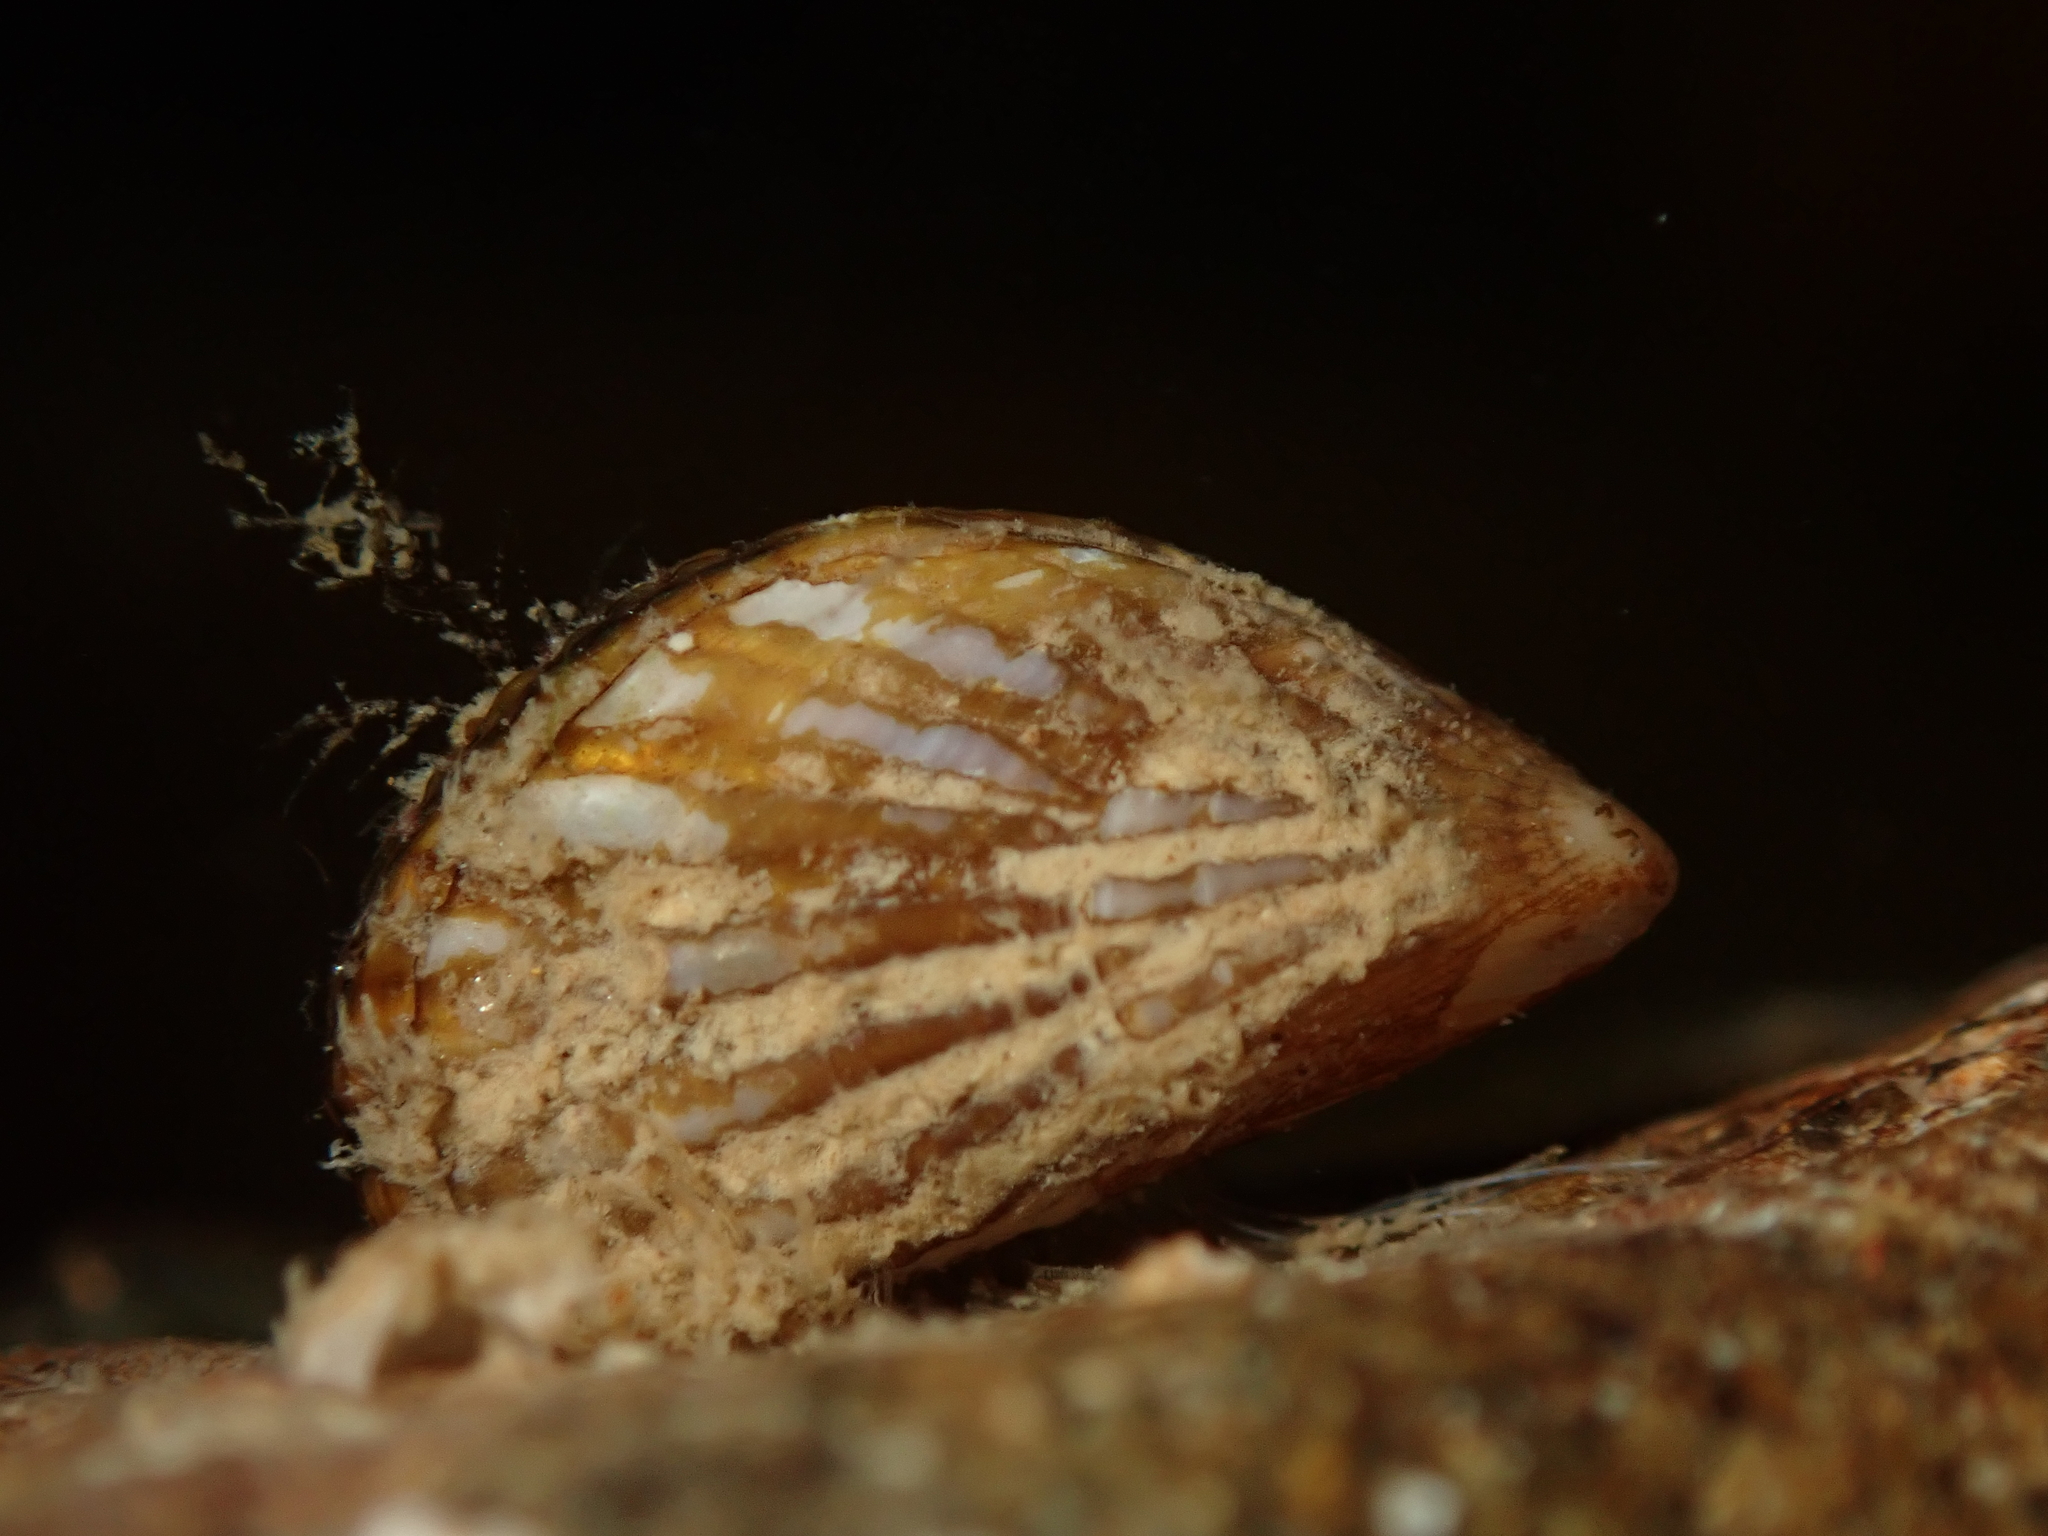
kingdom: Animalia
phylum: Mollusca
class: Bivalvia
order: Mytilida
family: Mytilidae
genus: Aulacomya
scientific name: Aulacomya maoriana
